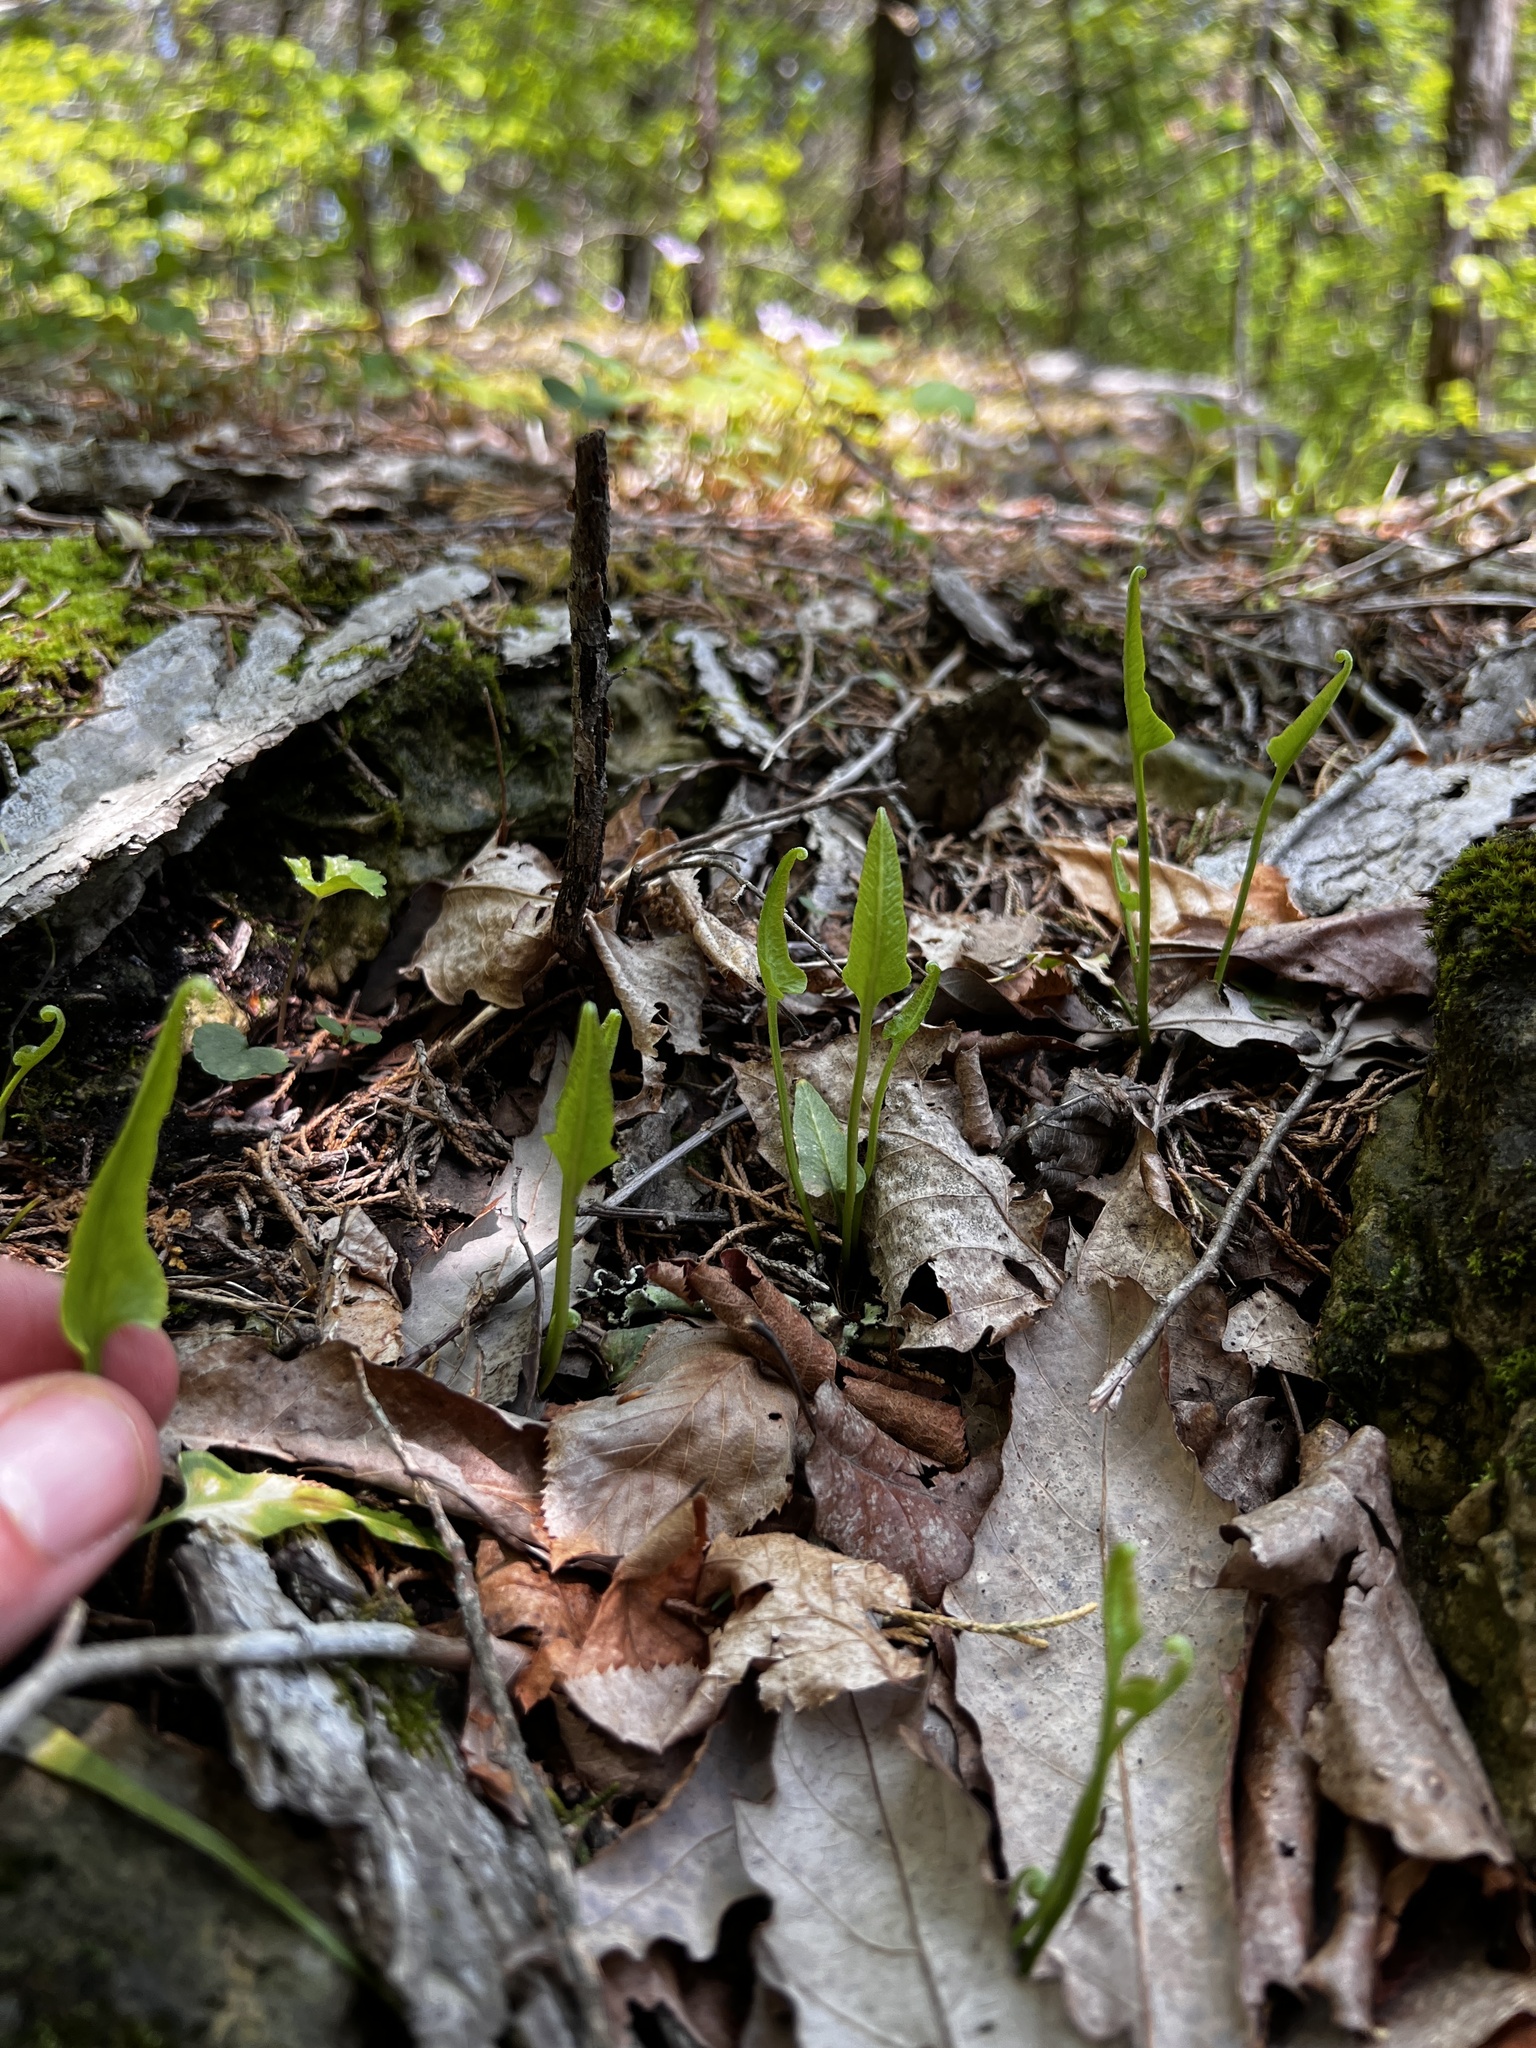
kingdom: Plantae
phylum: Tracheophyta
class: Polypodiopsida
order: Polypodiales
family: Aspleniaceae
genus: Asplenium
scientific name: Asplenium rhizophyllum
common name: Walking fern
